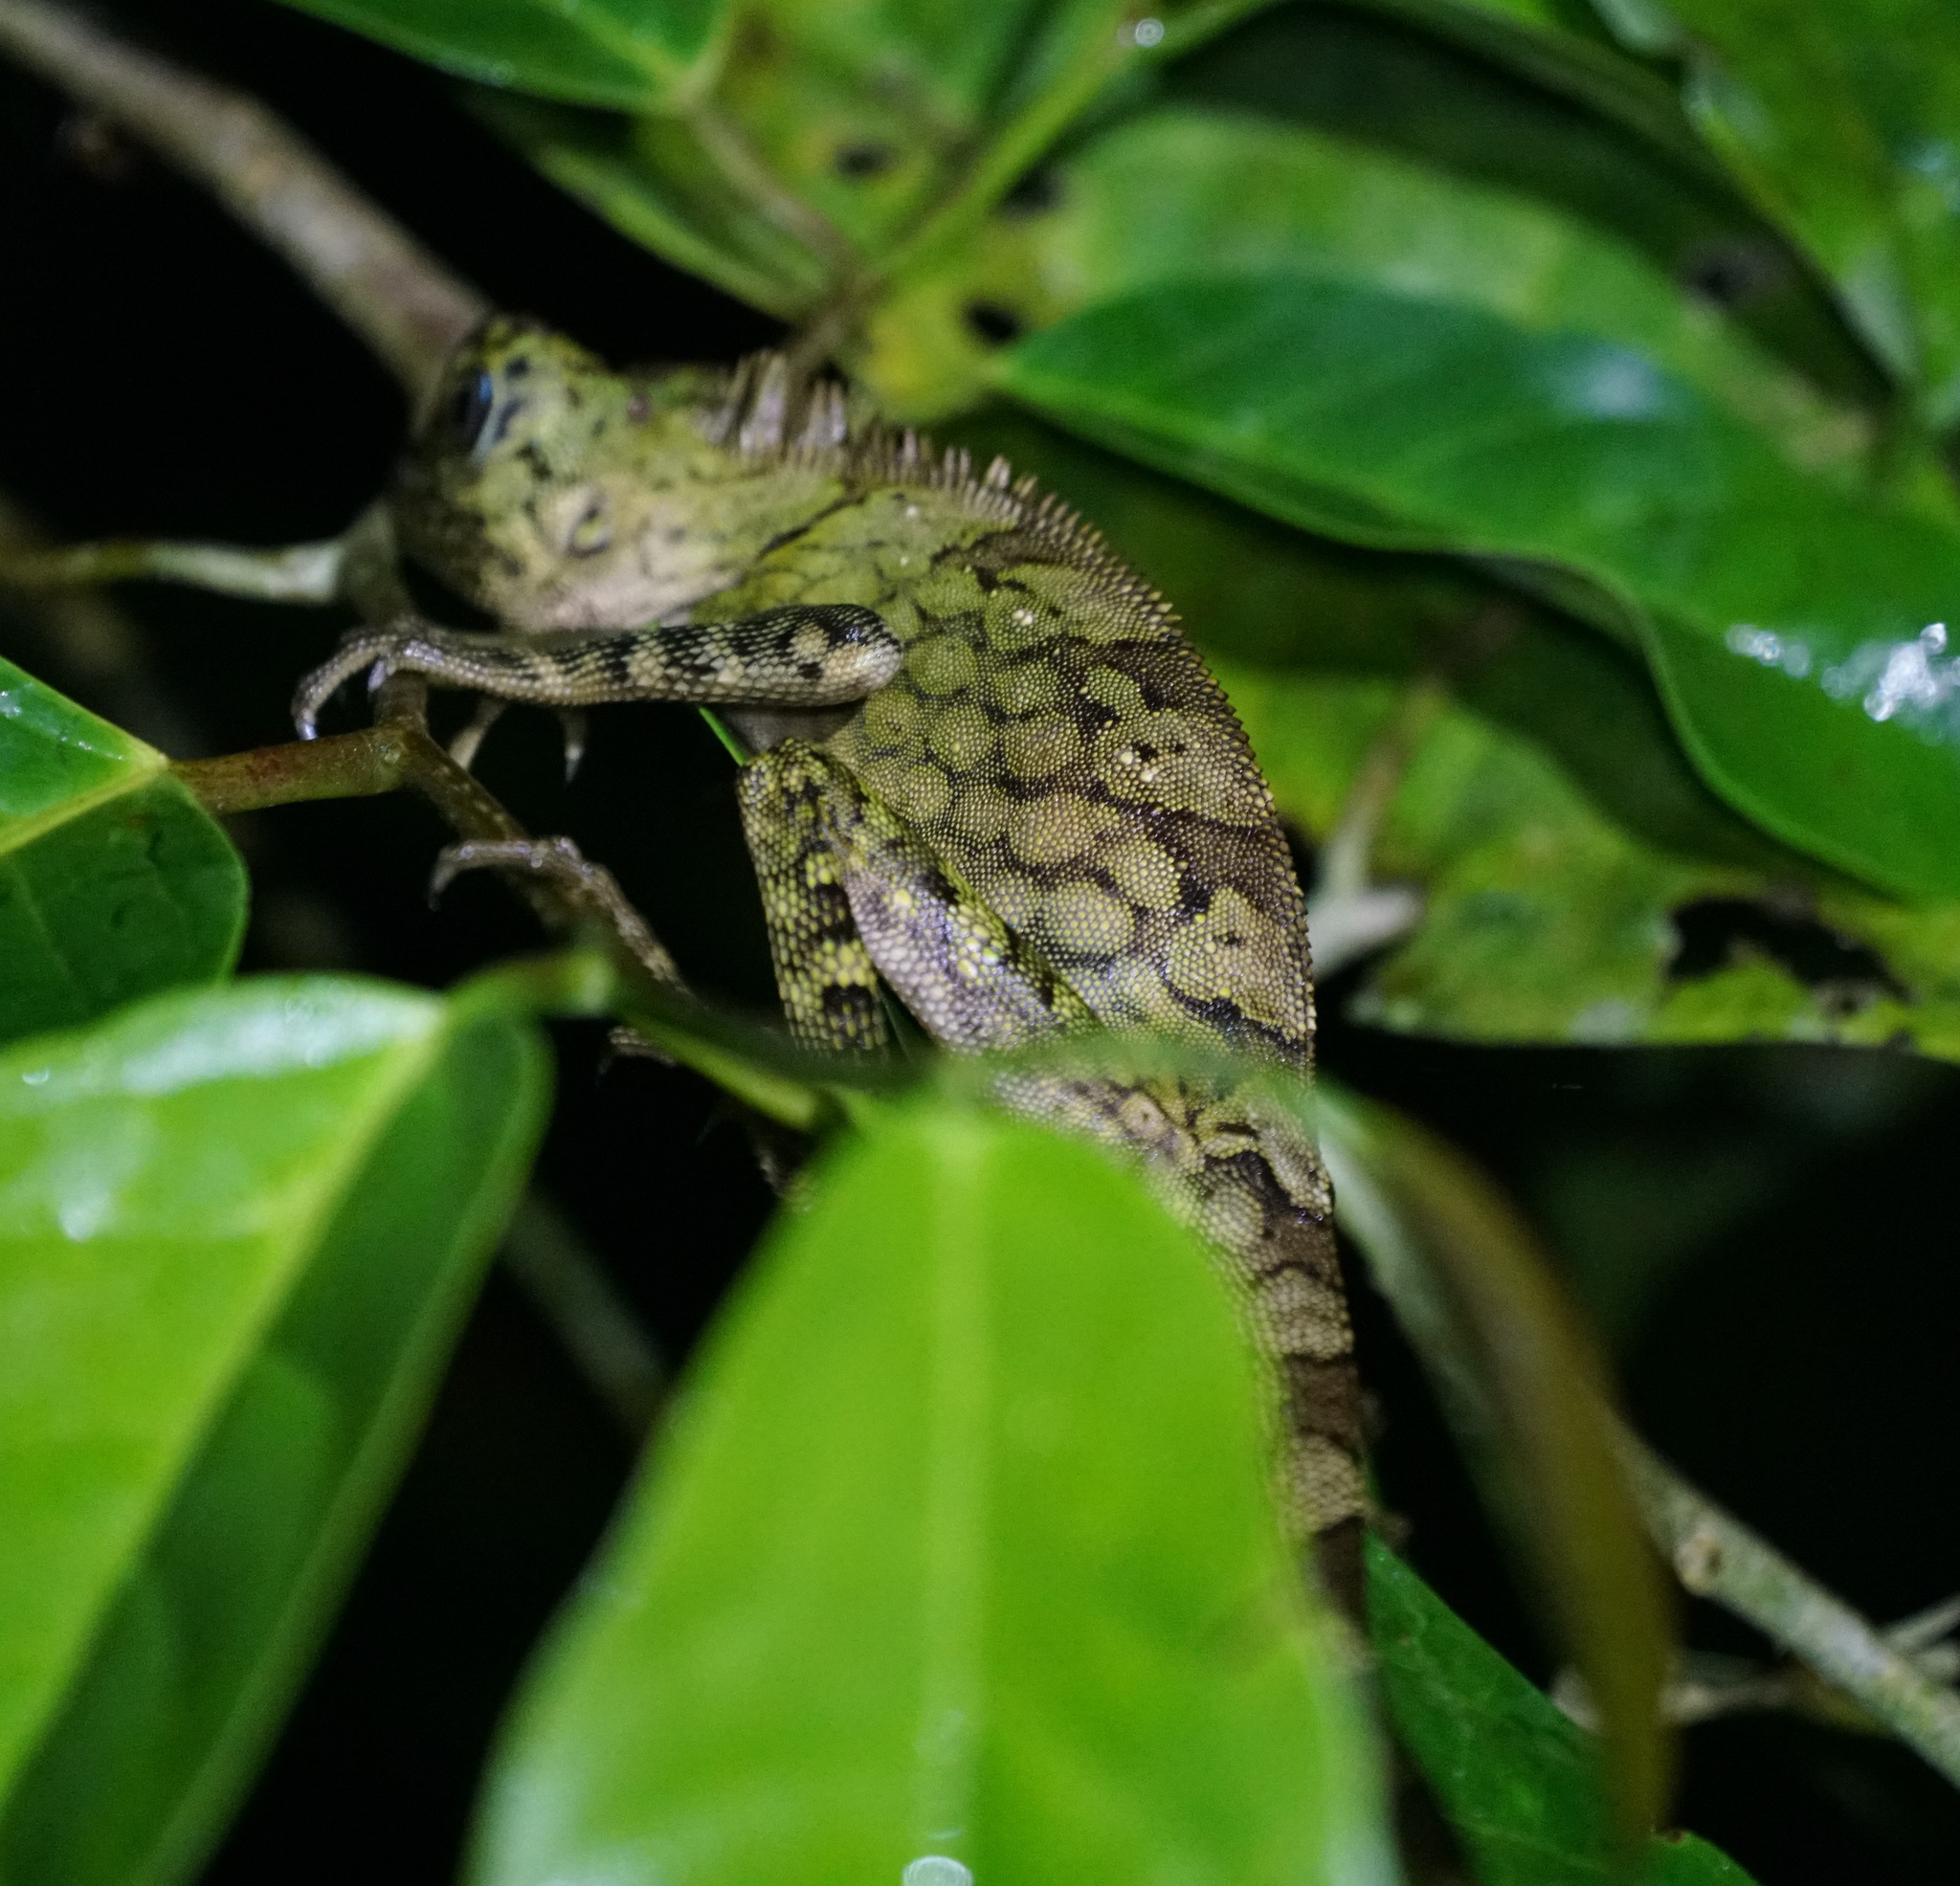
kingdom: Animalia
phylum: Chordata
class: Squamata
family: Agamidae
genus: Gonocephalus
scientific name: Gonocephalus bornensis
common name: Borneo forest dragon
